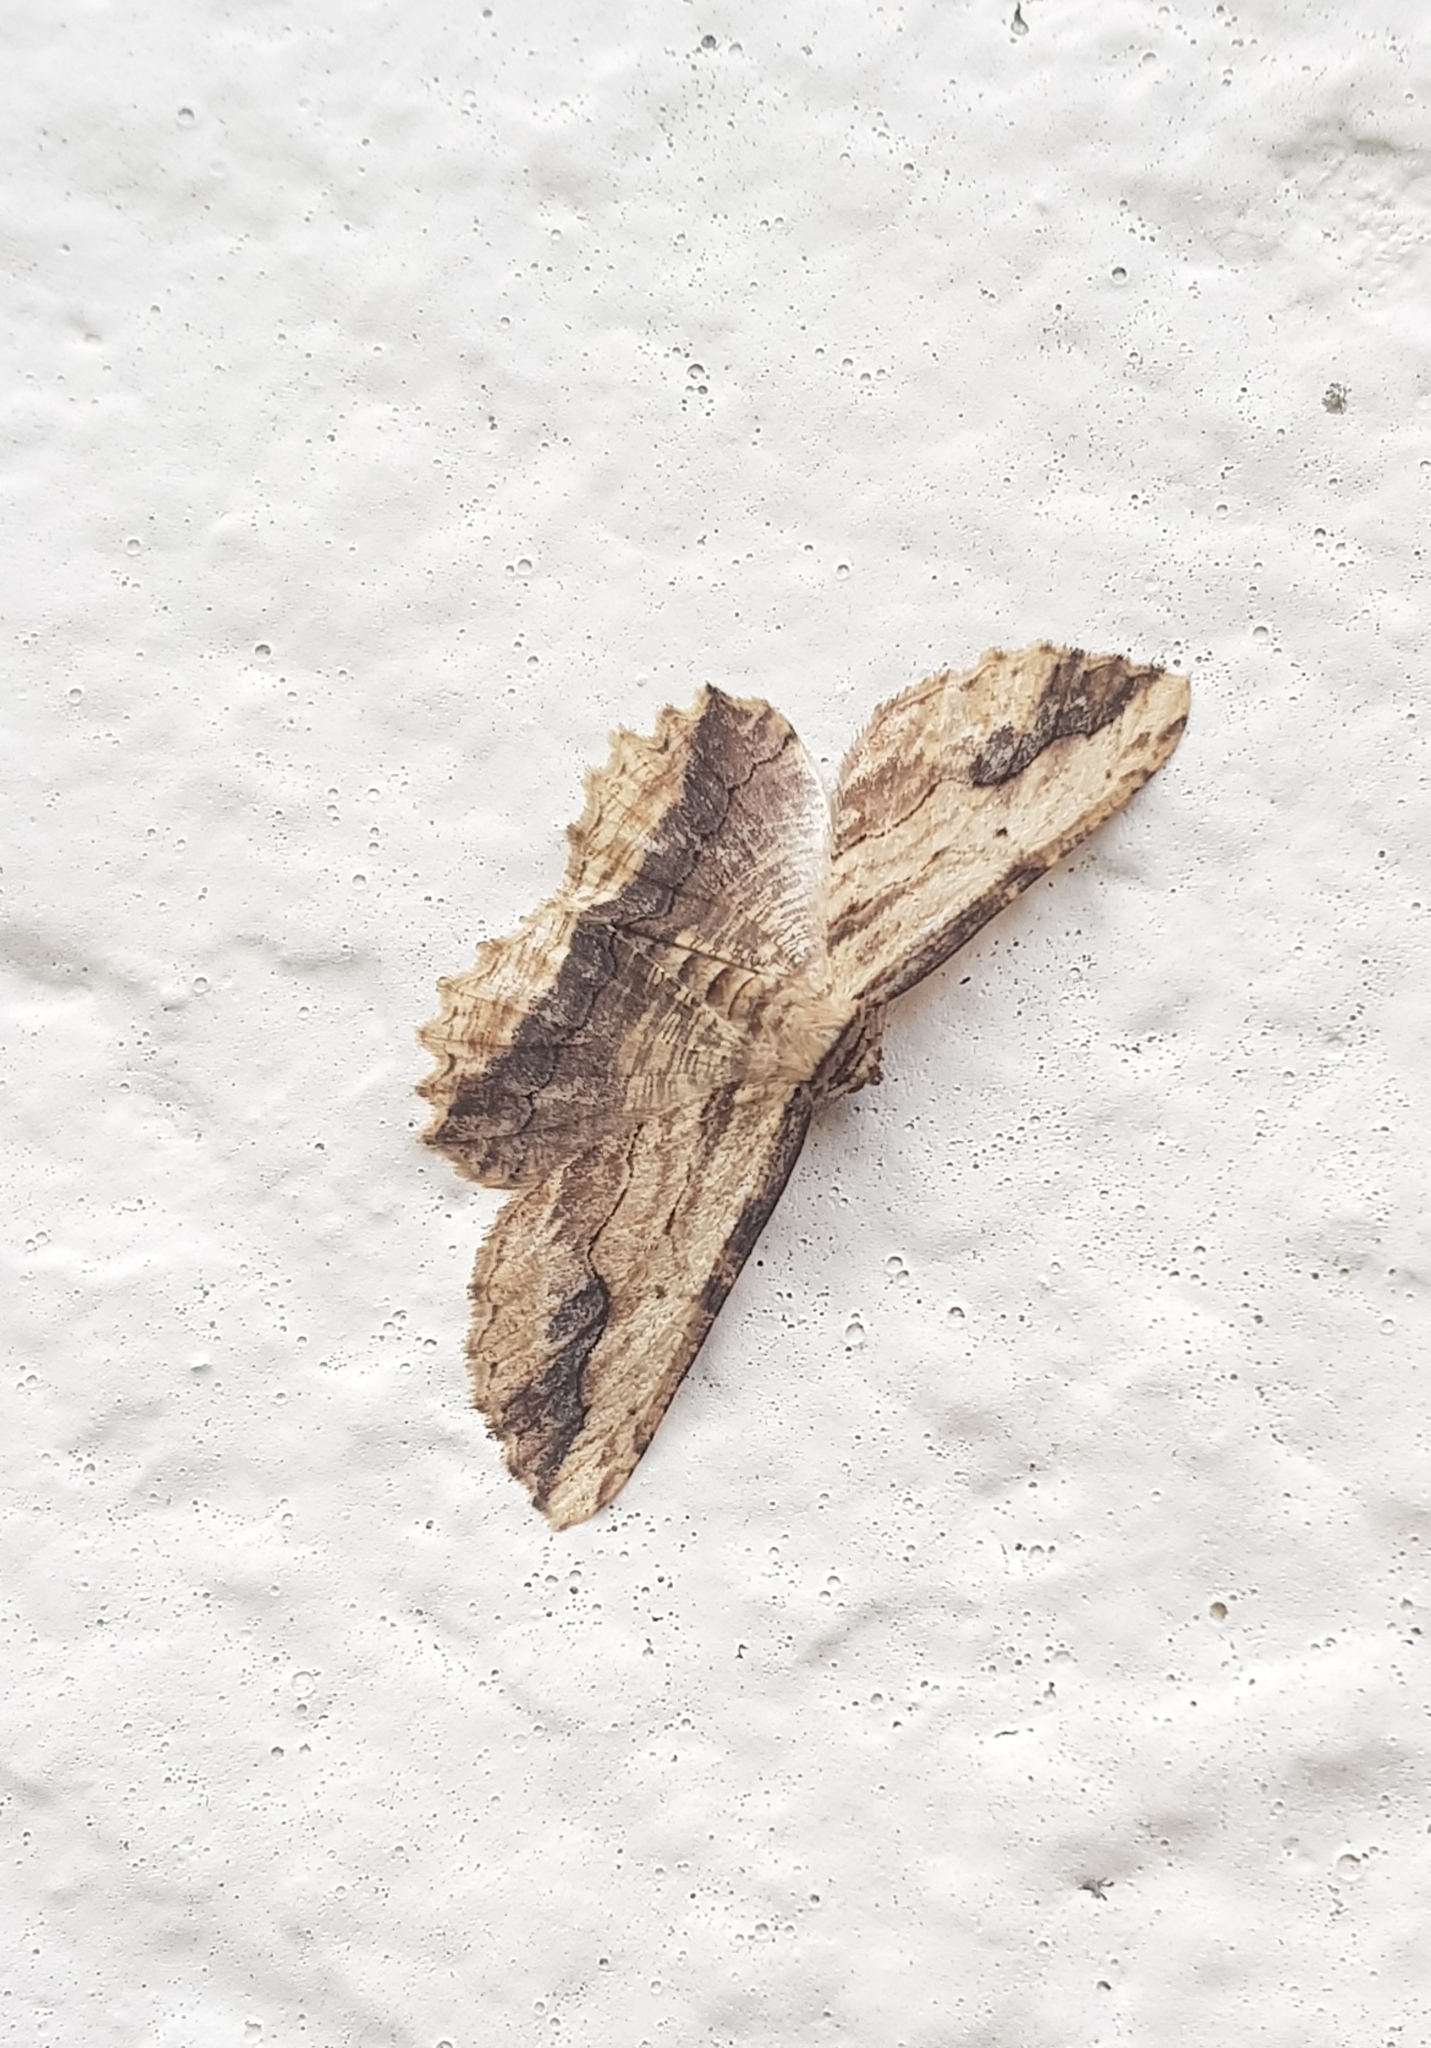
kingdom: Animalia
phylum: Arthropoda
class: Insecta
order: Lepidoptera
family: Geometridae
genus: Menophra
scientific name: Menophra abruptaria
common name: Waved umber
